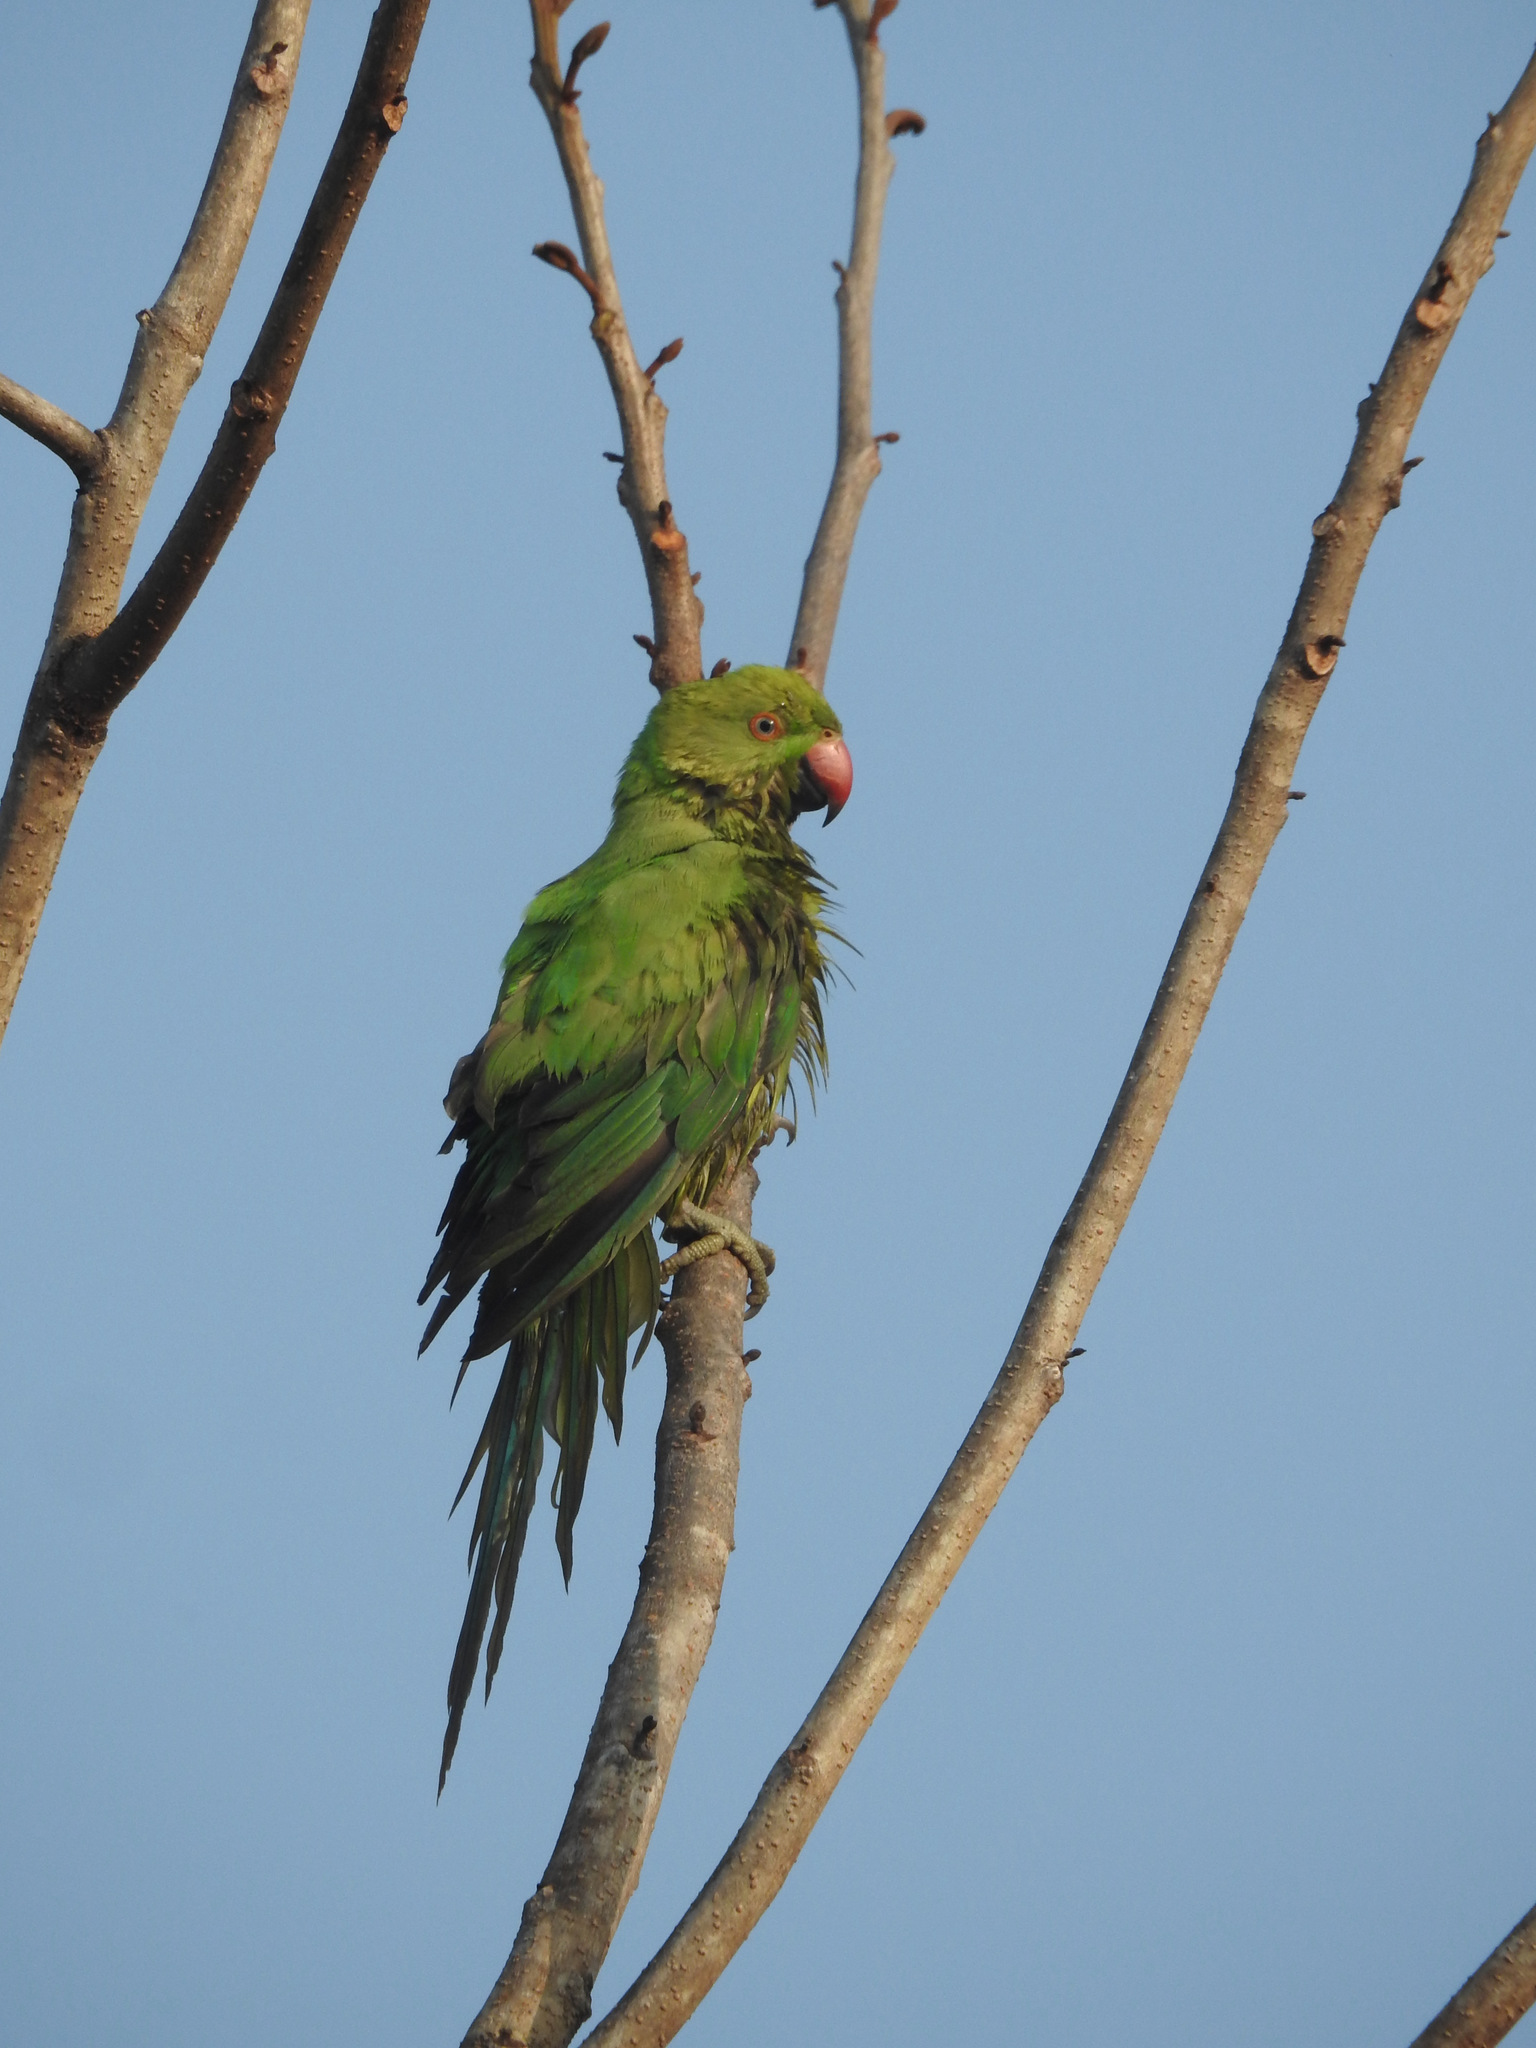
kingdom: Animalia
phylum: Chordata
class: Aves
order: Psittaciformes
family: Psittacidae
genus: Psittacula
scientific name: Psittacula krameri
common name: Rose-ringed parakeet
